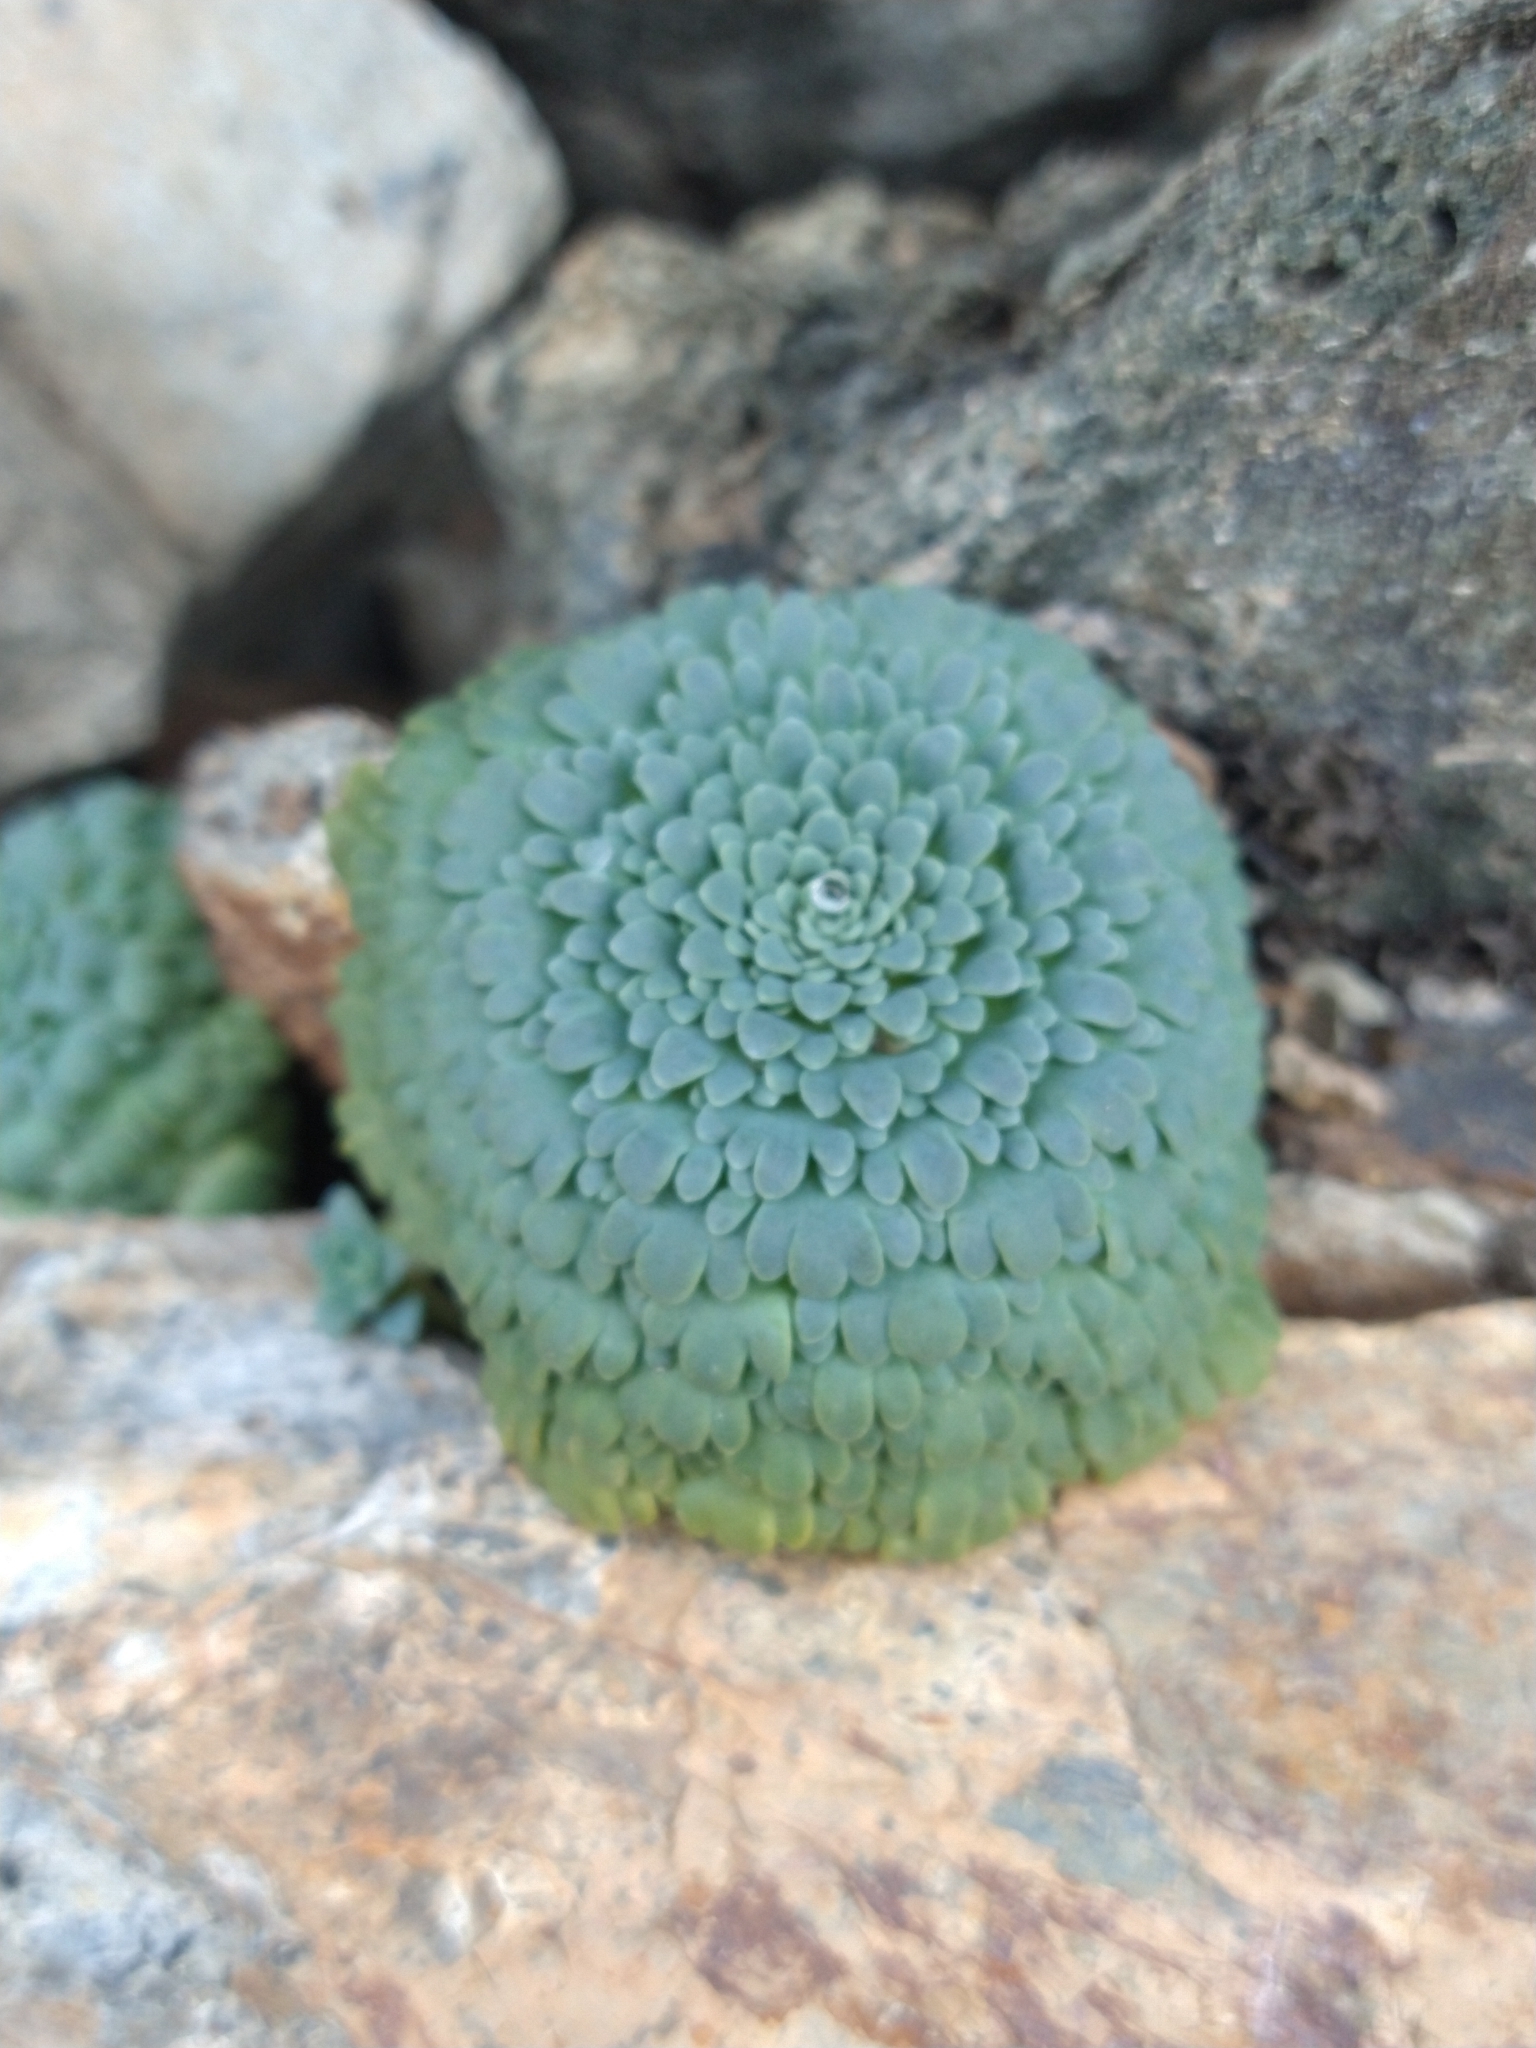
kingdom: Plantae
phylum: Tracheophyta
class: Magnoliopsida
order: Asterales
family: Calyceraceae
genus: Moschopsis
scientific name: Moschopsis rosulata
